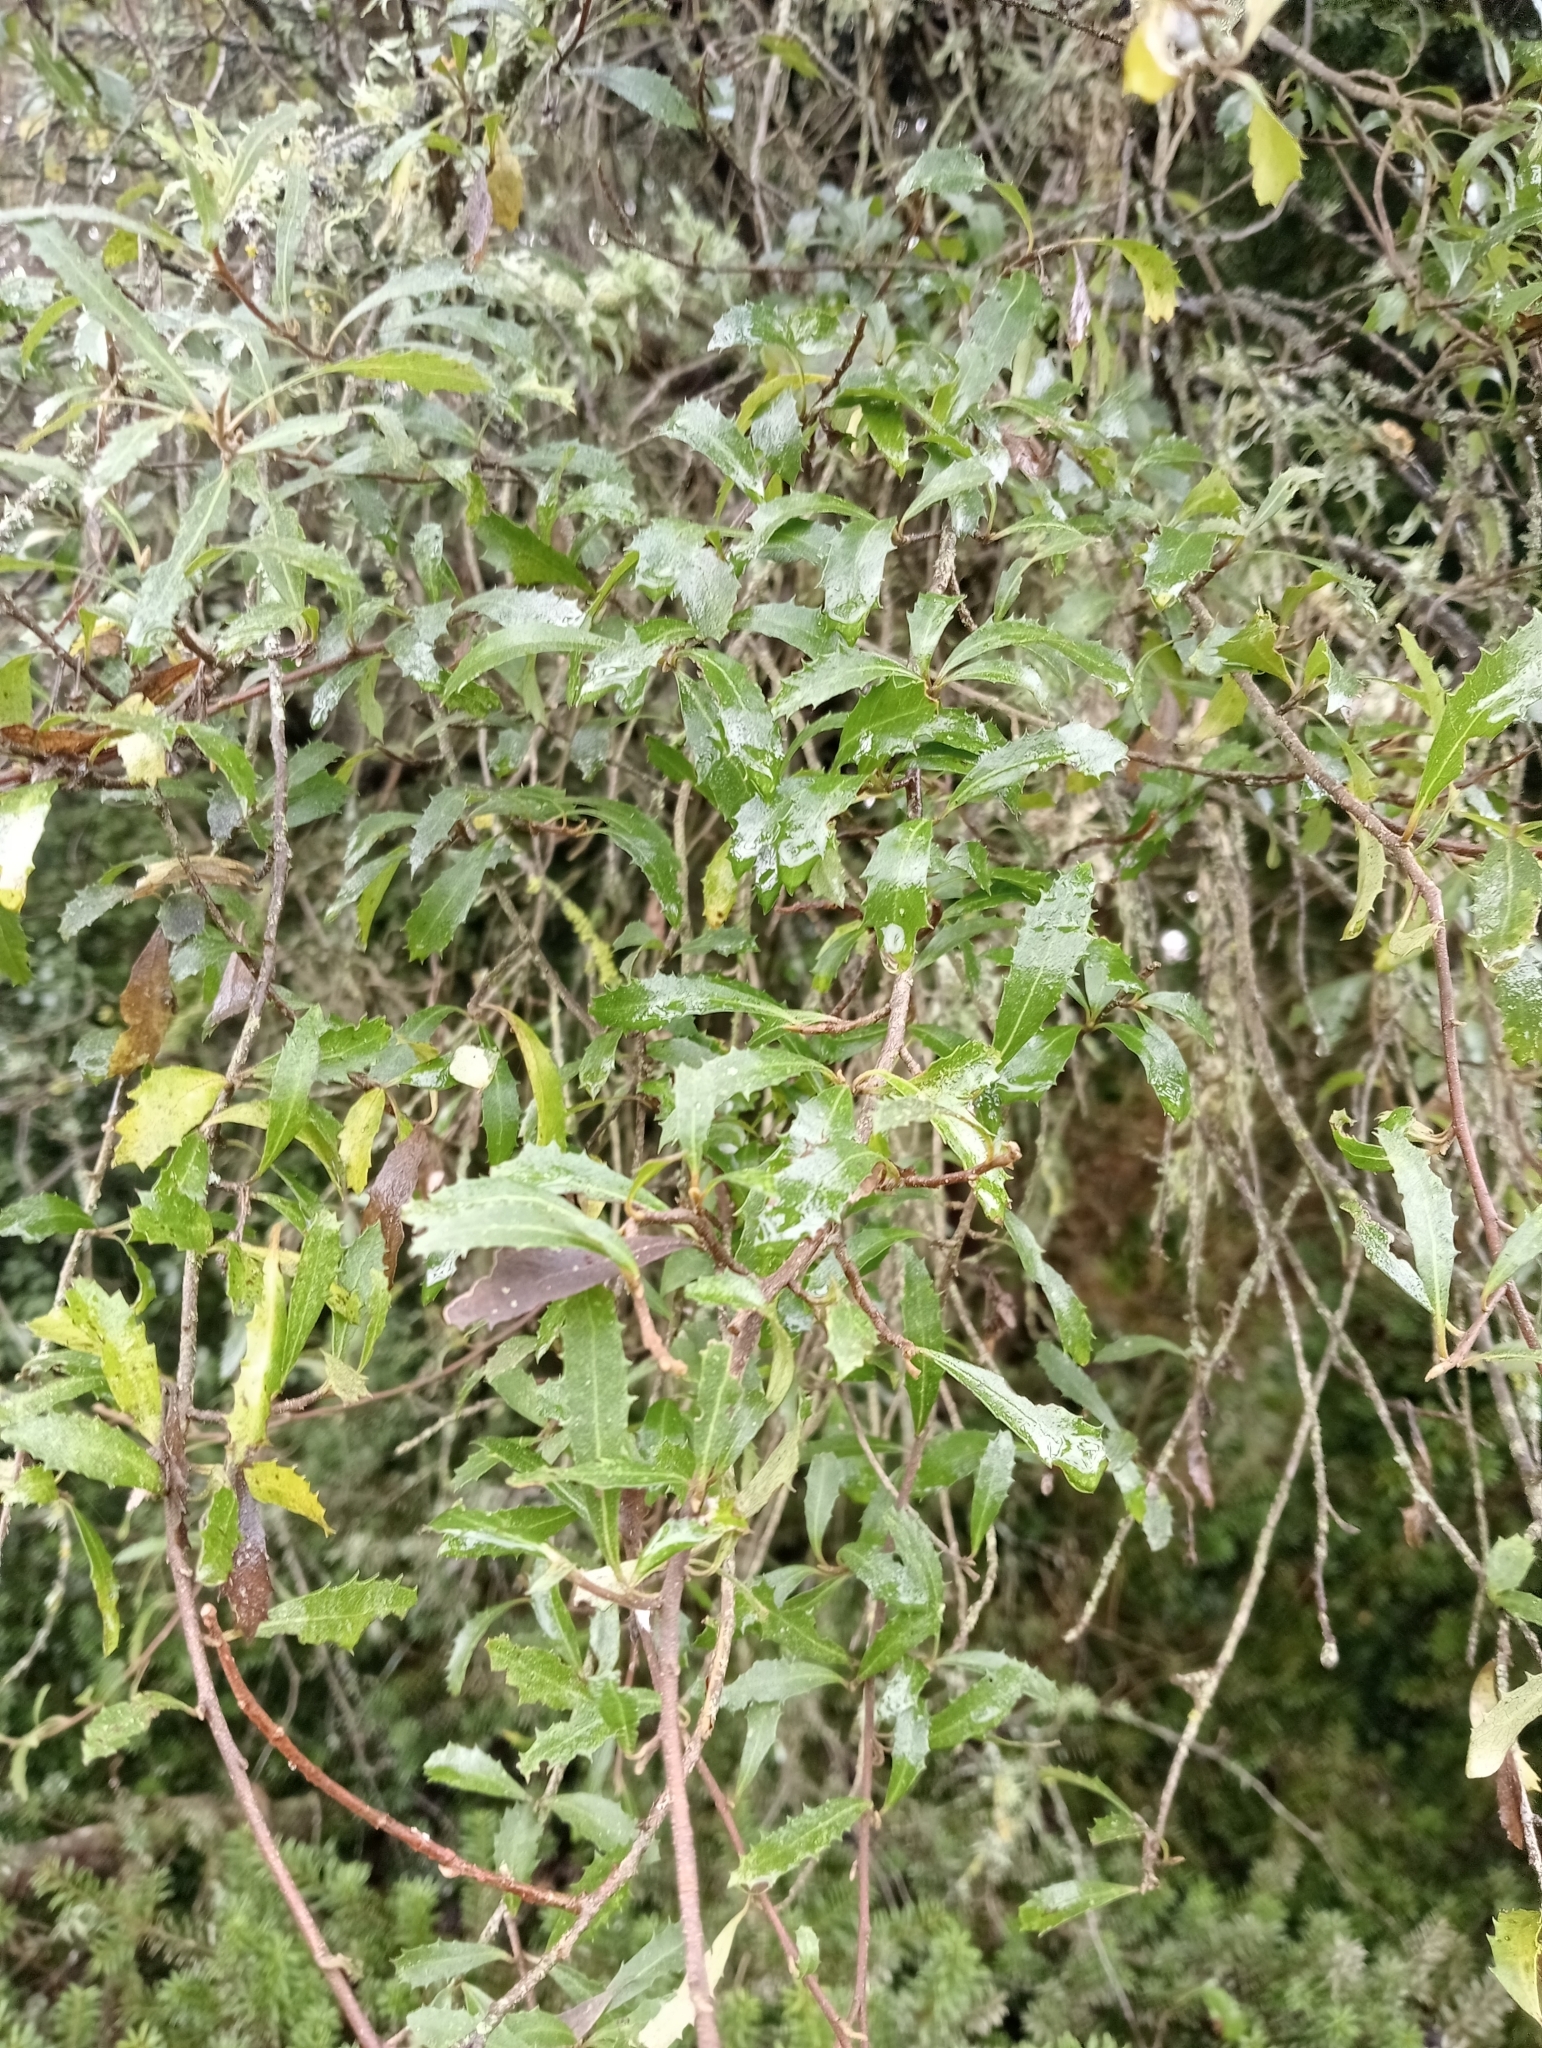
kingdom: Plantae
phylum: Tracheophyta
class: Magnoliopsida
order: Malvales
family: Malvaceae
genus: Hoheria
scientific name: Hoheria angustifolia
